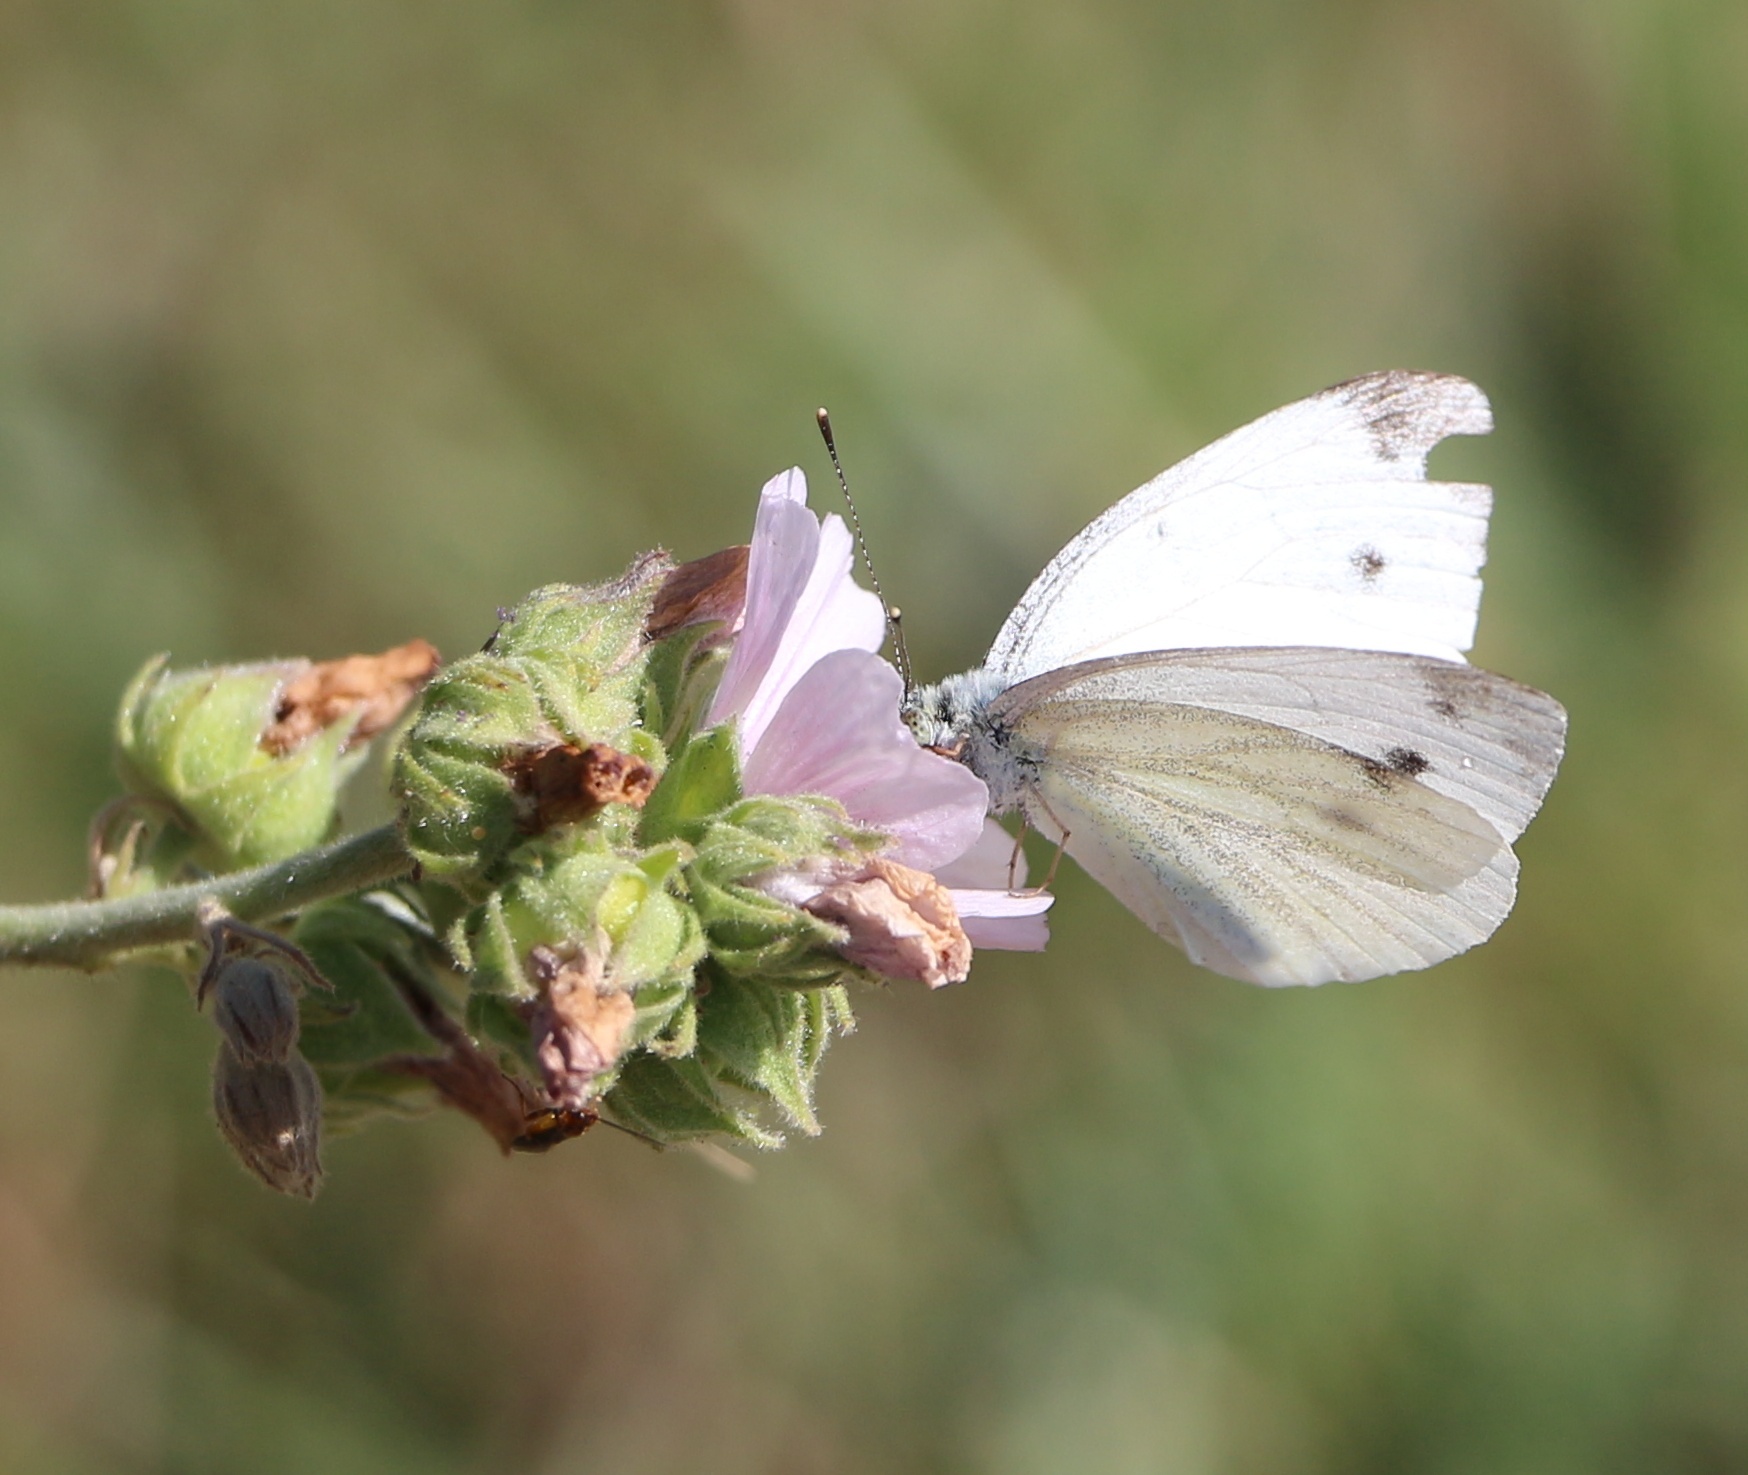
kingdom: Animalia
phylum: Arthropoda
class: Insecta
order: Lepidoptera
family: Pieridae
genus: Pieris
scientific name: Pieris napi
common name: Green-veined white
